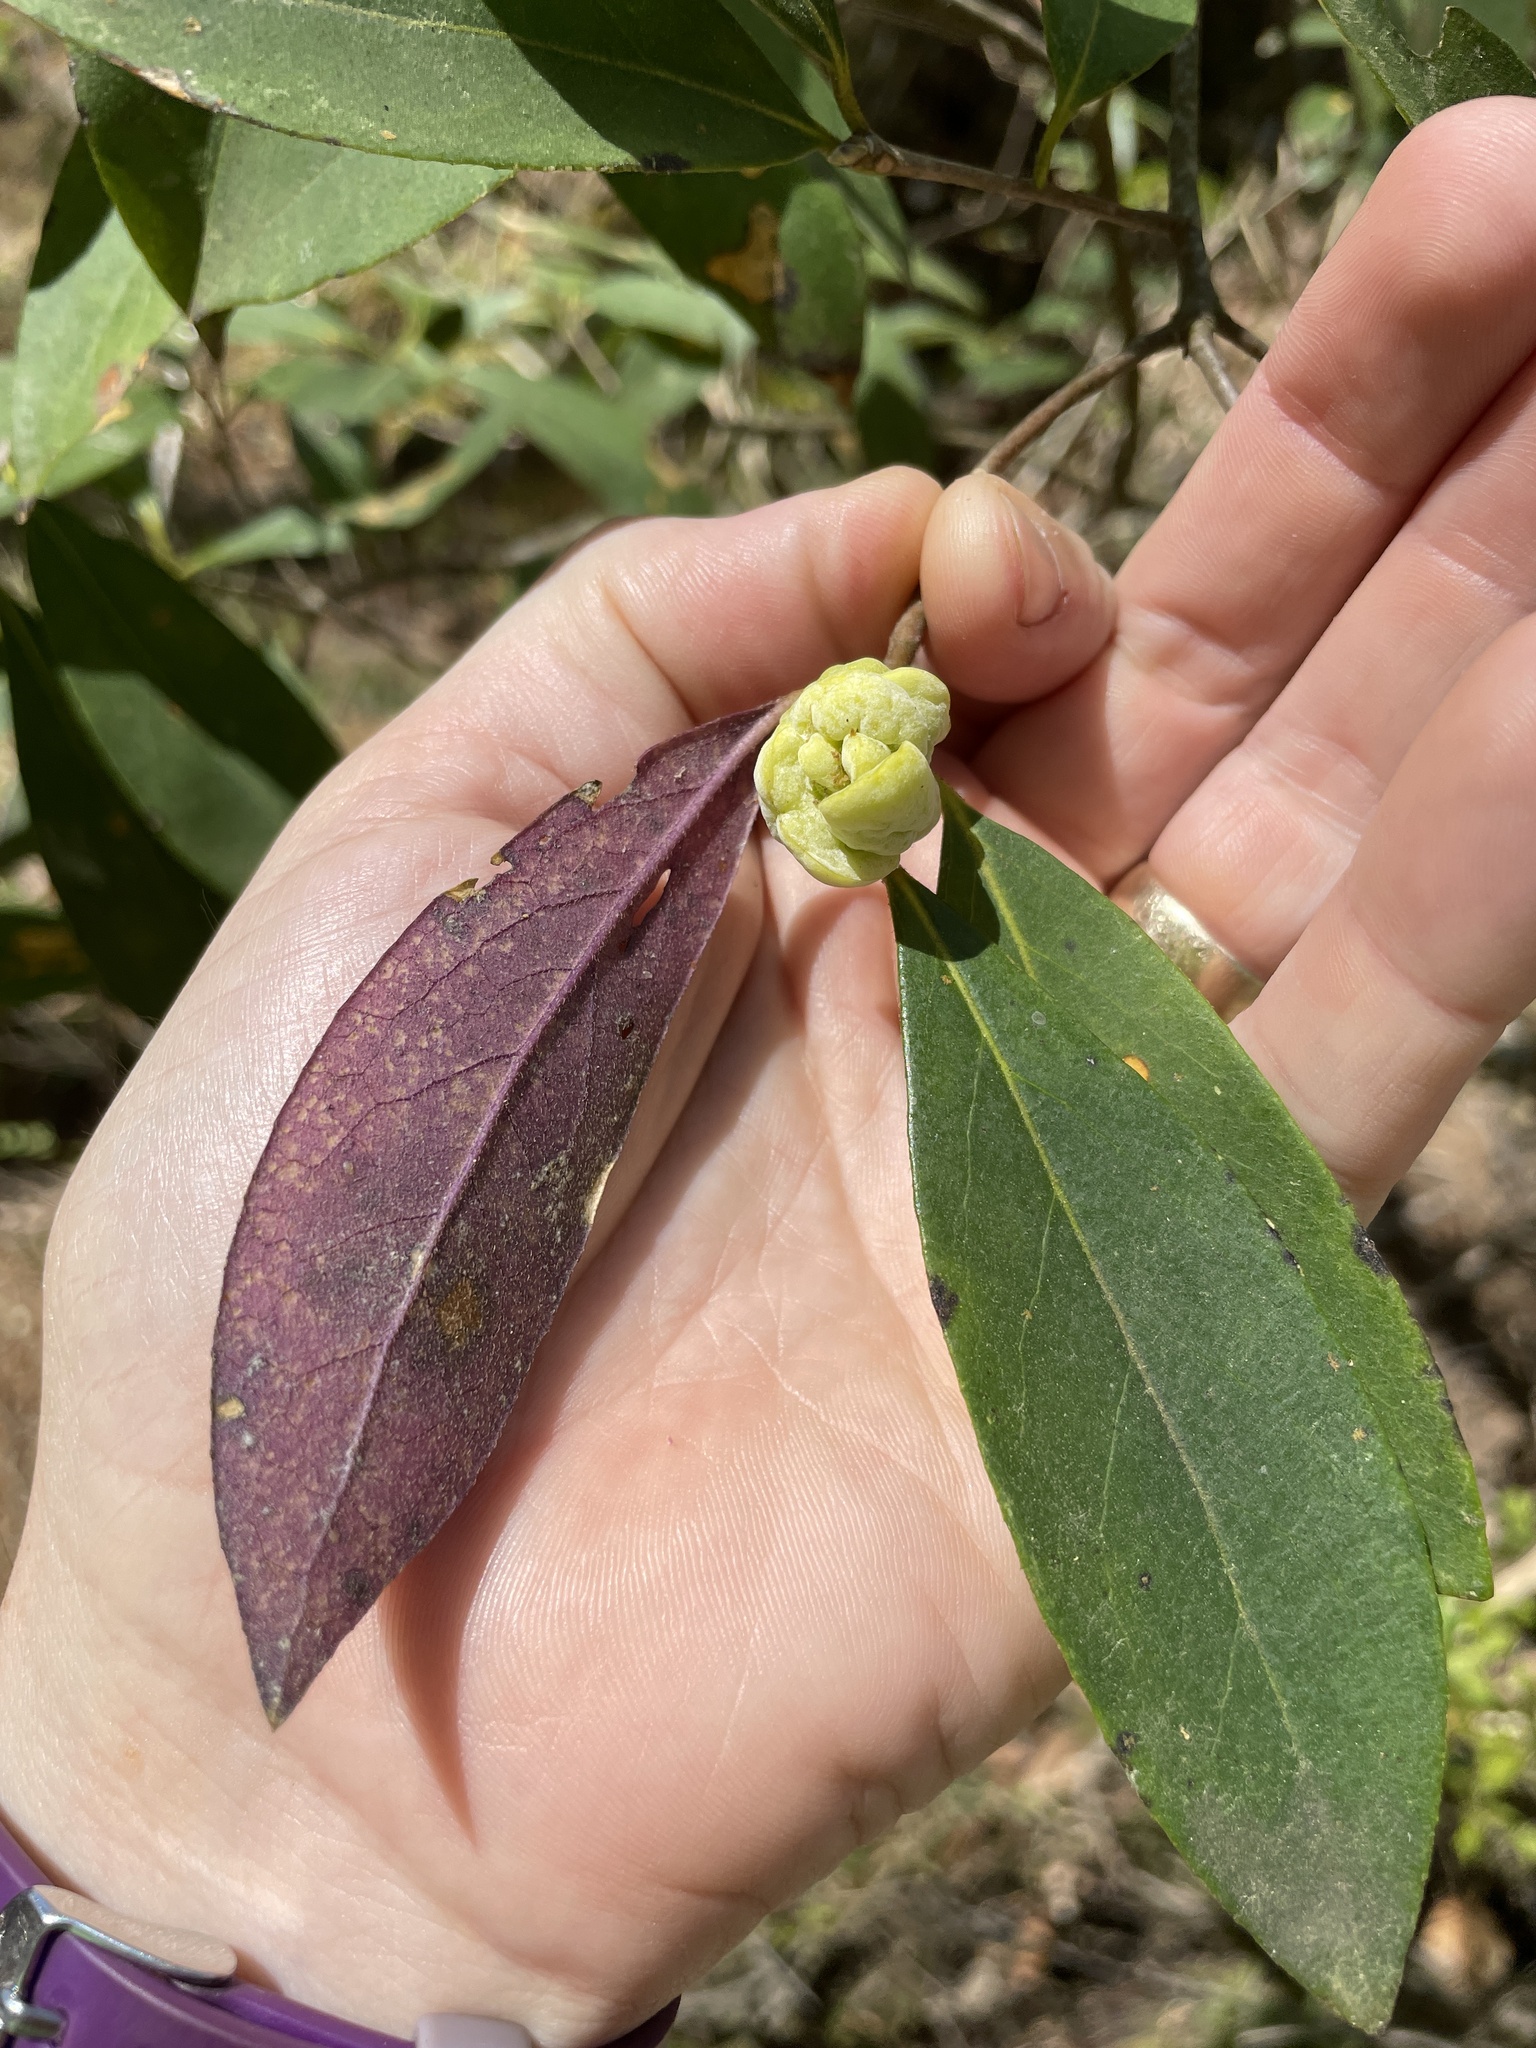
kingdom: Fungi
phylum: Basidiomycota
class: Exobasidiomycetes
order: Exobasidiales
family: Exobasidiaceae
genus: Exobasidium
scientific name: Exobasidium symploci
